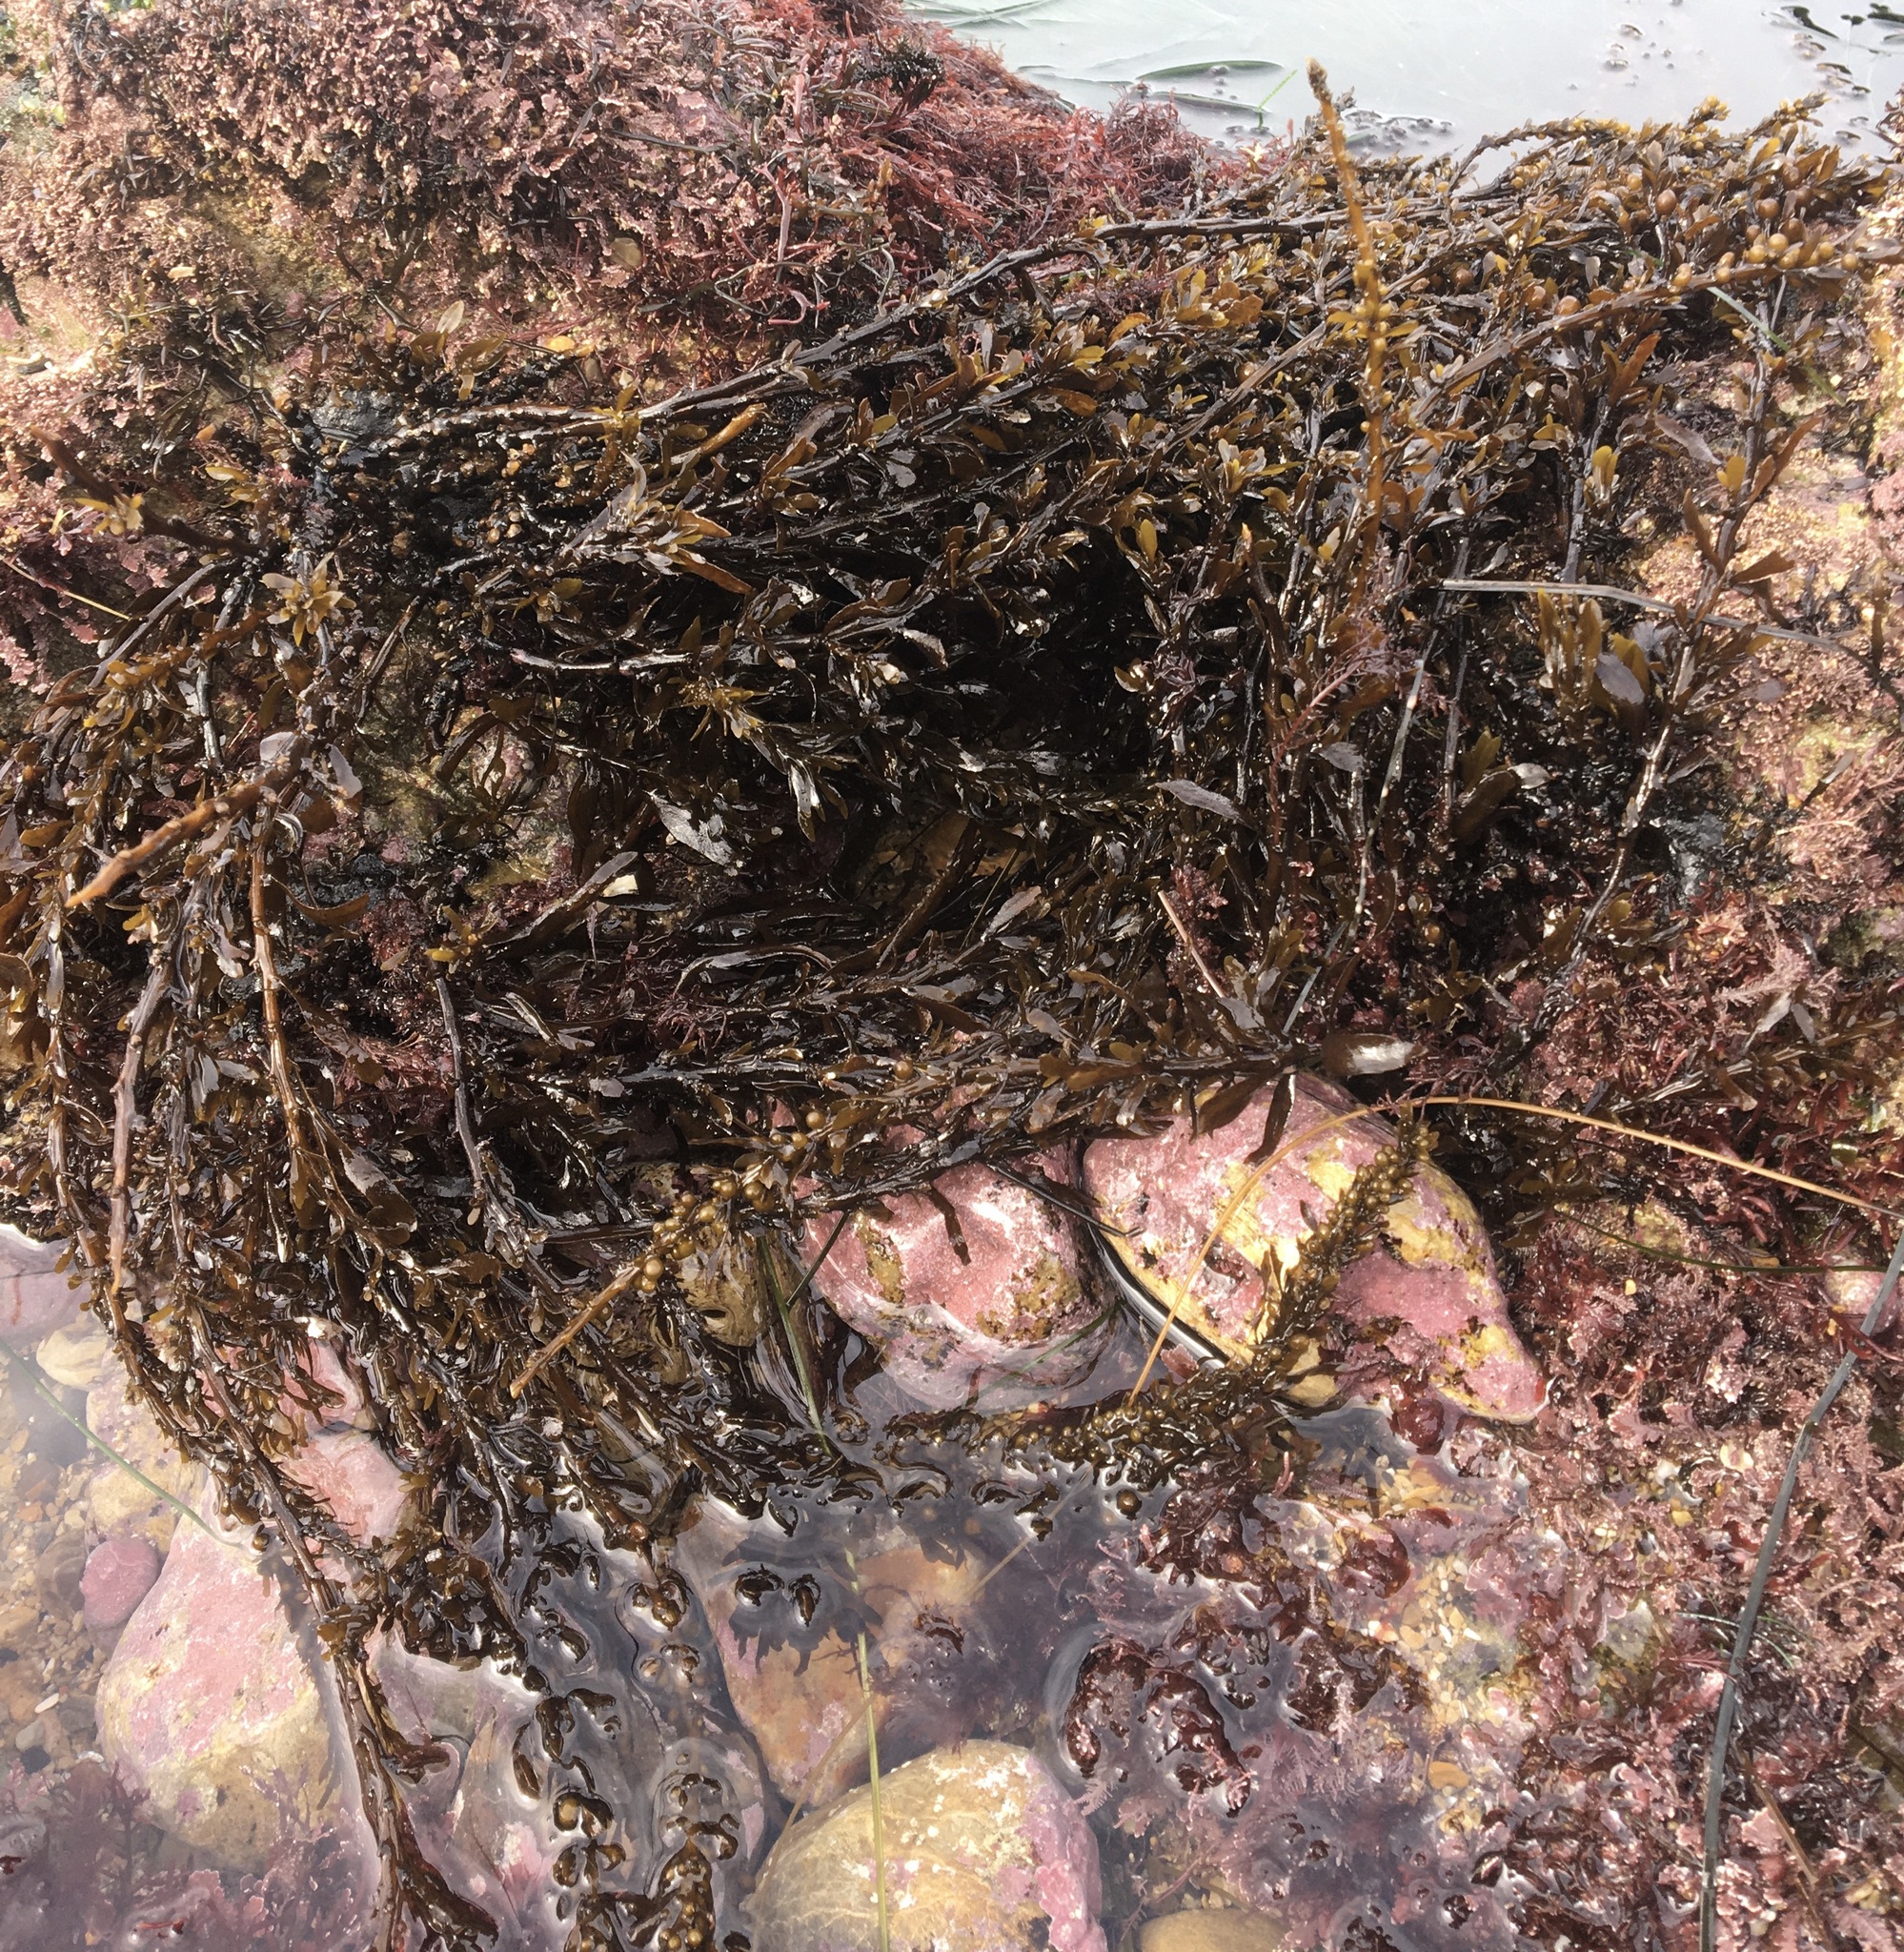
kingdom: Chromista
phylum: Ochrophyta
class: Phaeophyceae
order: Fucales
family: Sargassaceae
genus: Sargassum
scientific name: Sargassum muticum
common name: Japweed
